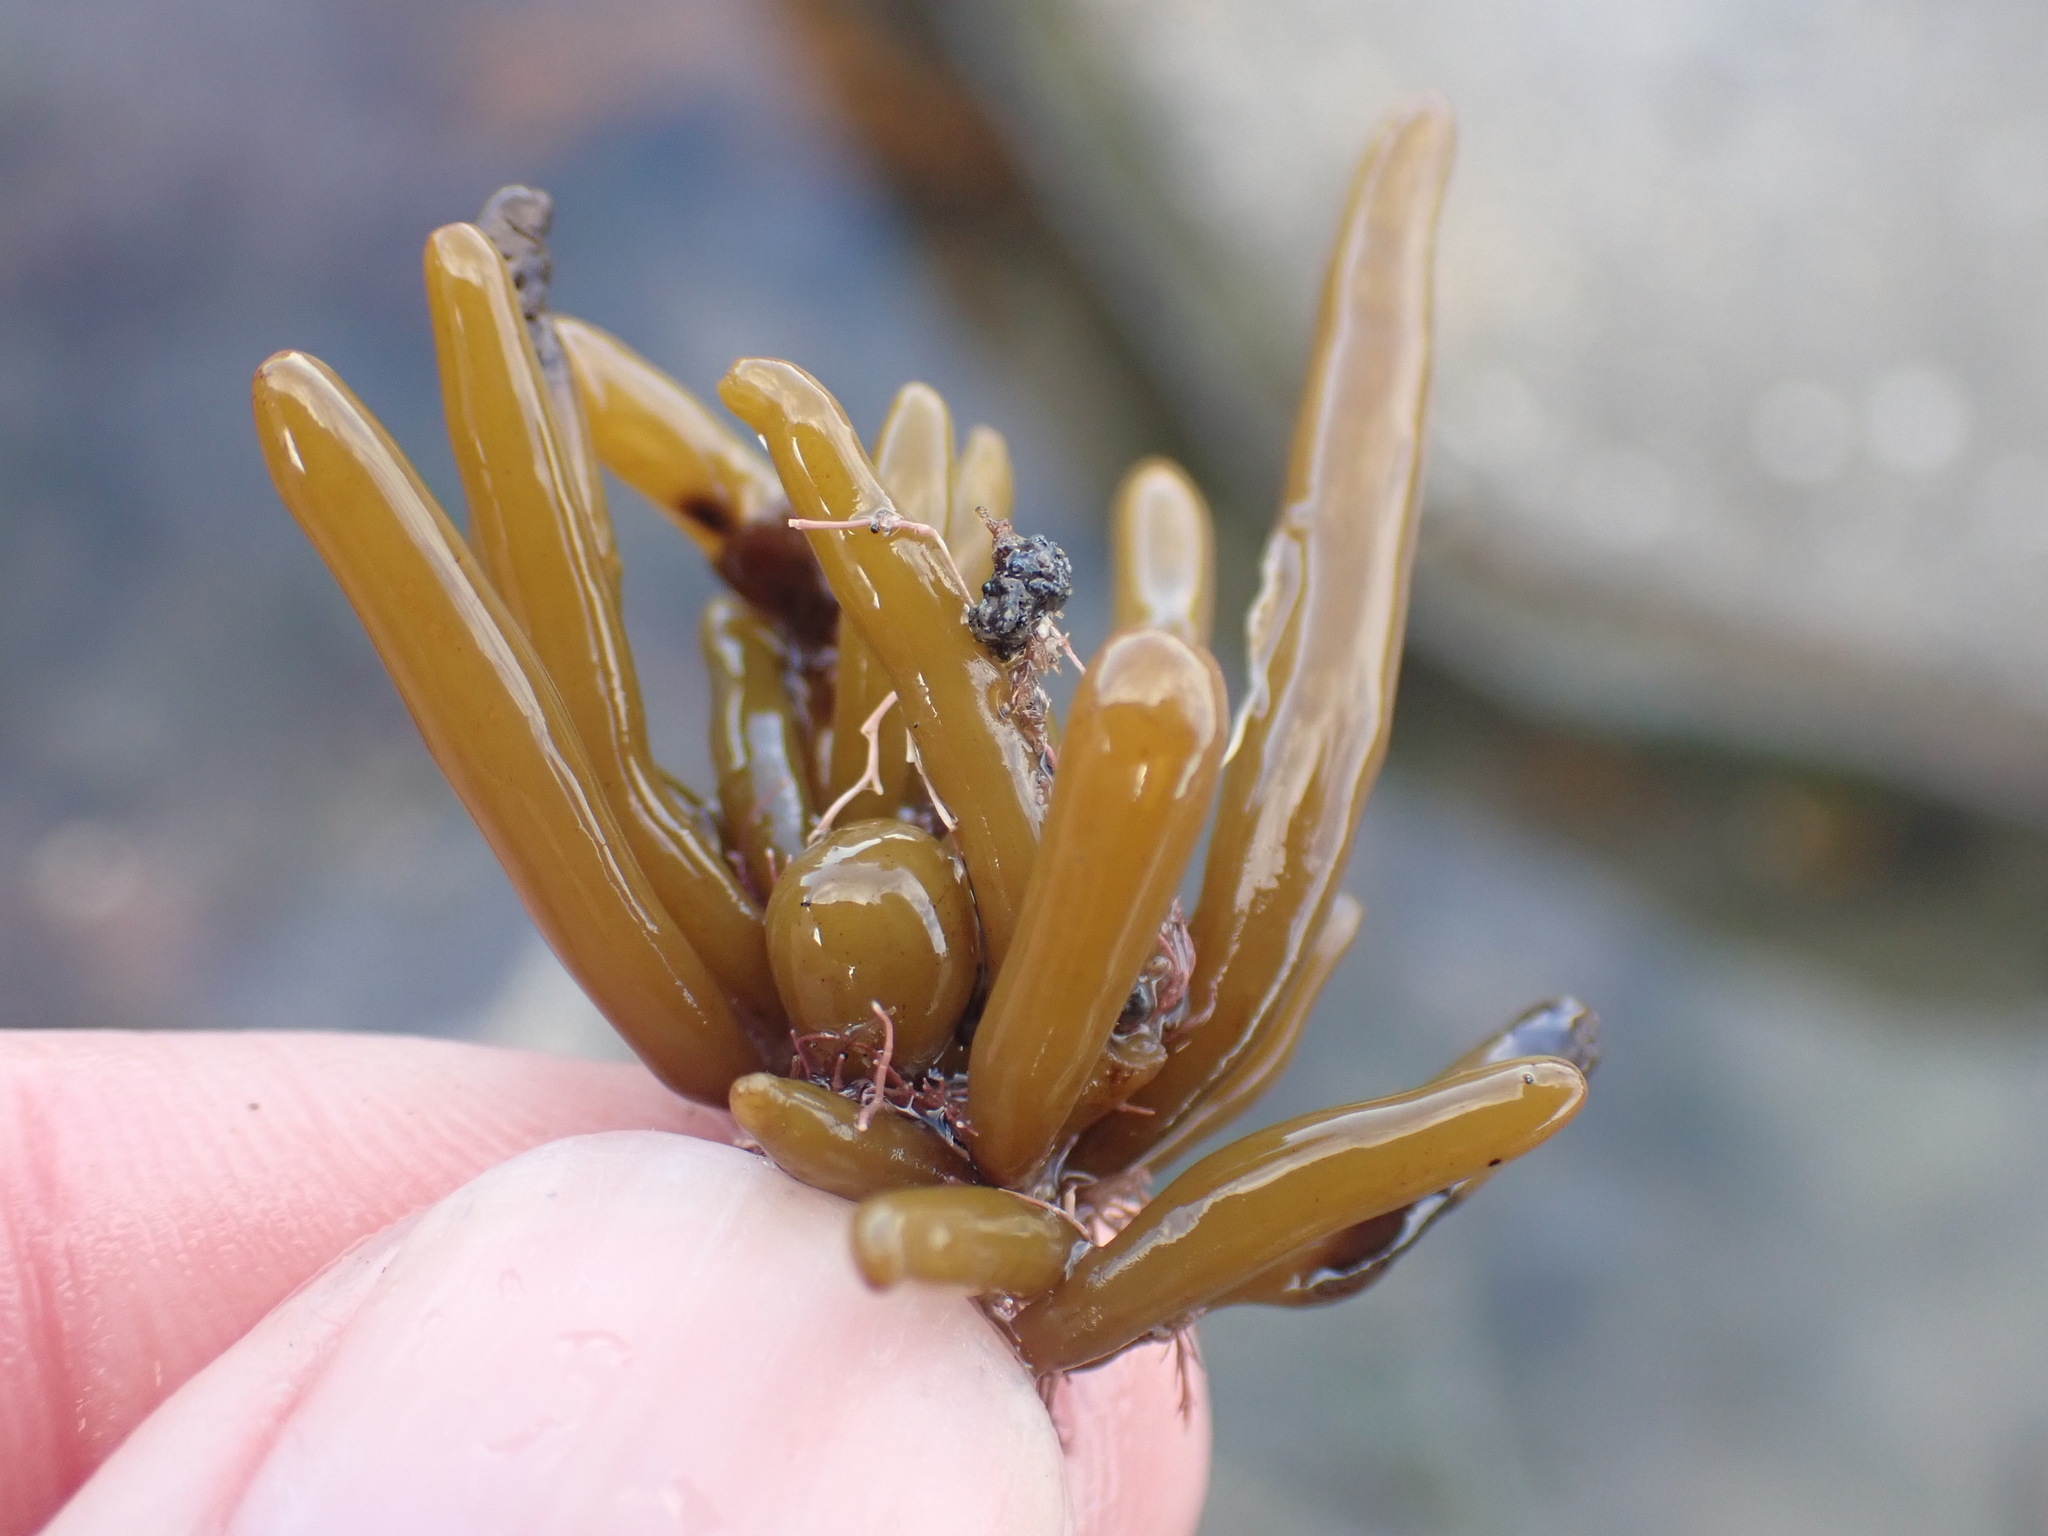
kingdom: Chromista
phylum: Ochrophyta
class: Phaeophyceae
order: Fucales
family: Sargassaceae
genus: Cystophora
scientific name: Cystophora torulosa
